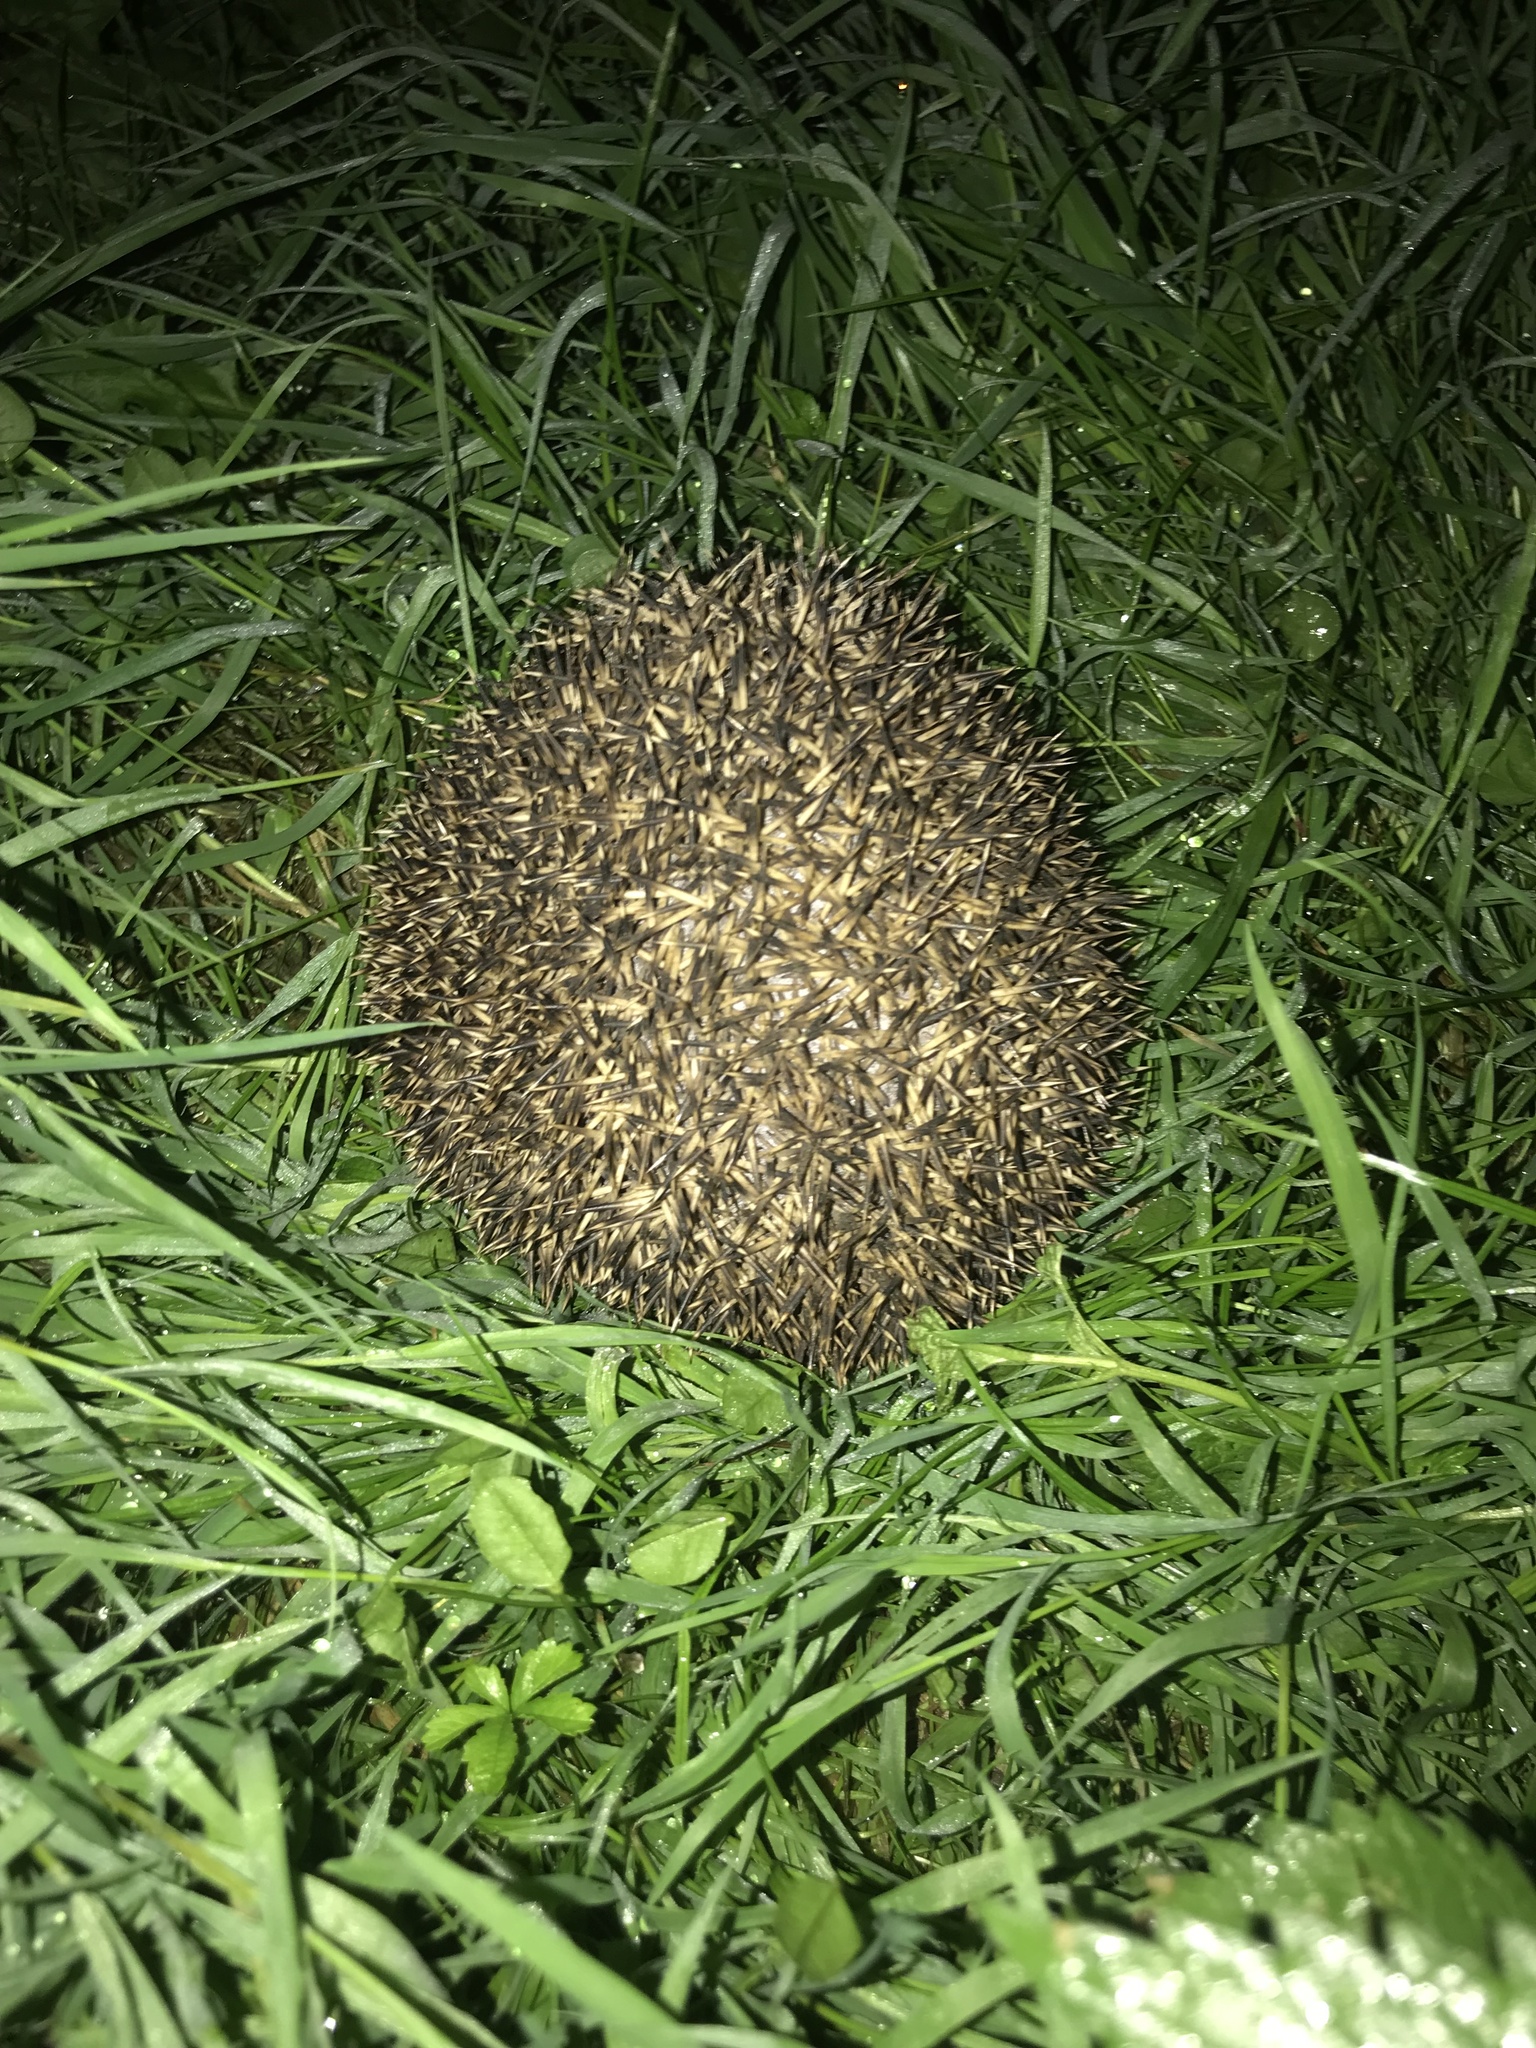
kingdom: Animalia
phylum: Chordata
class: Mammalia
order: Erinaceomorpha
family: Erinaceidae
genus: Erinaceus
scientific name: Erinaceus europaeus
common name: West european hedgehog
